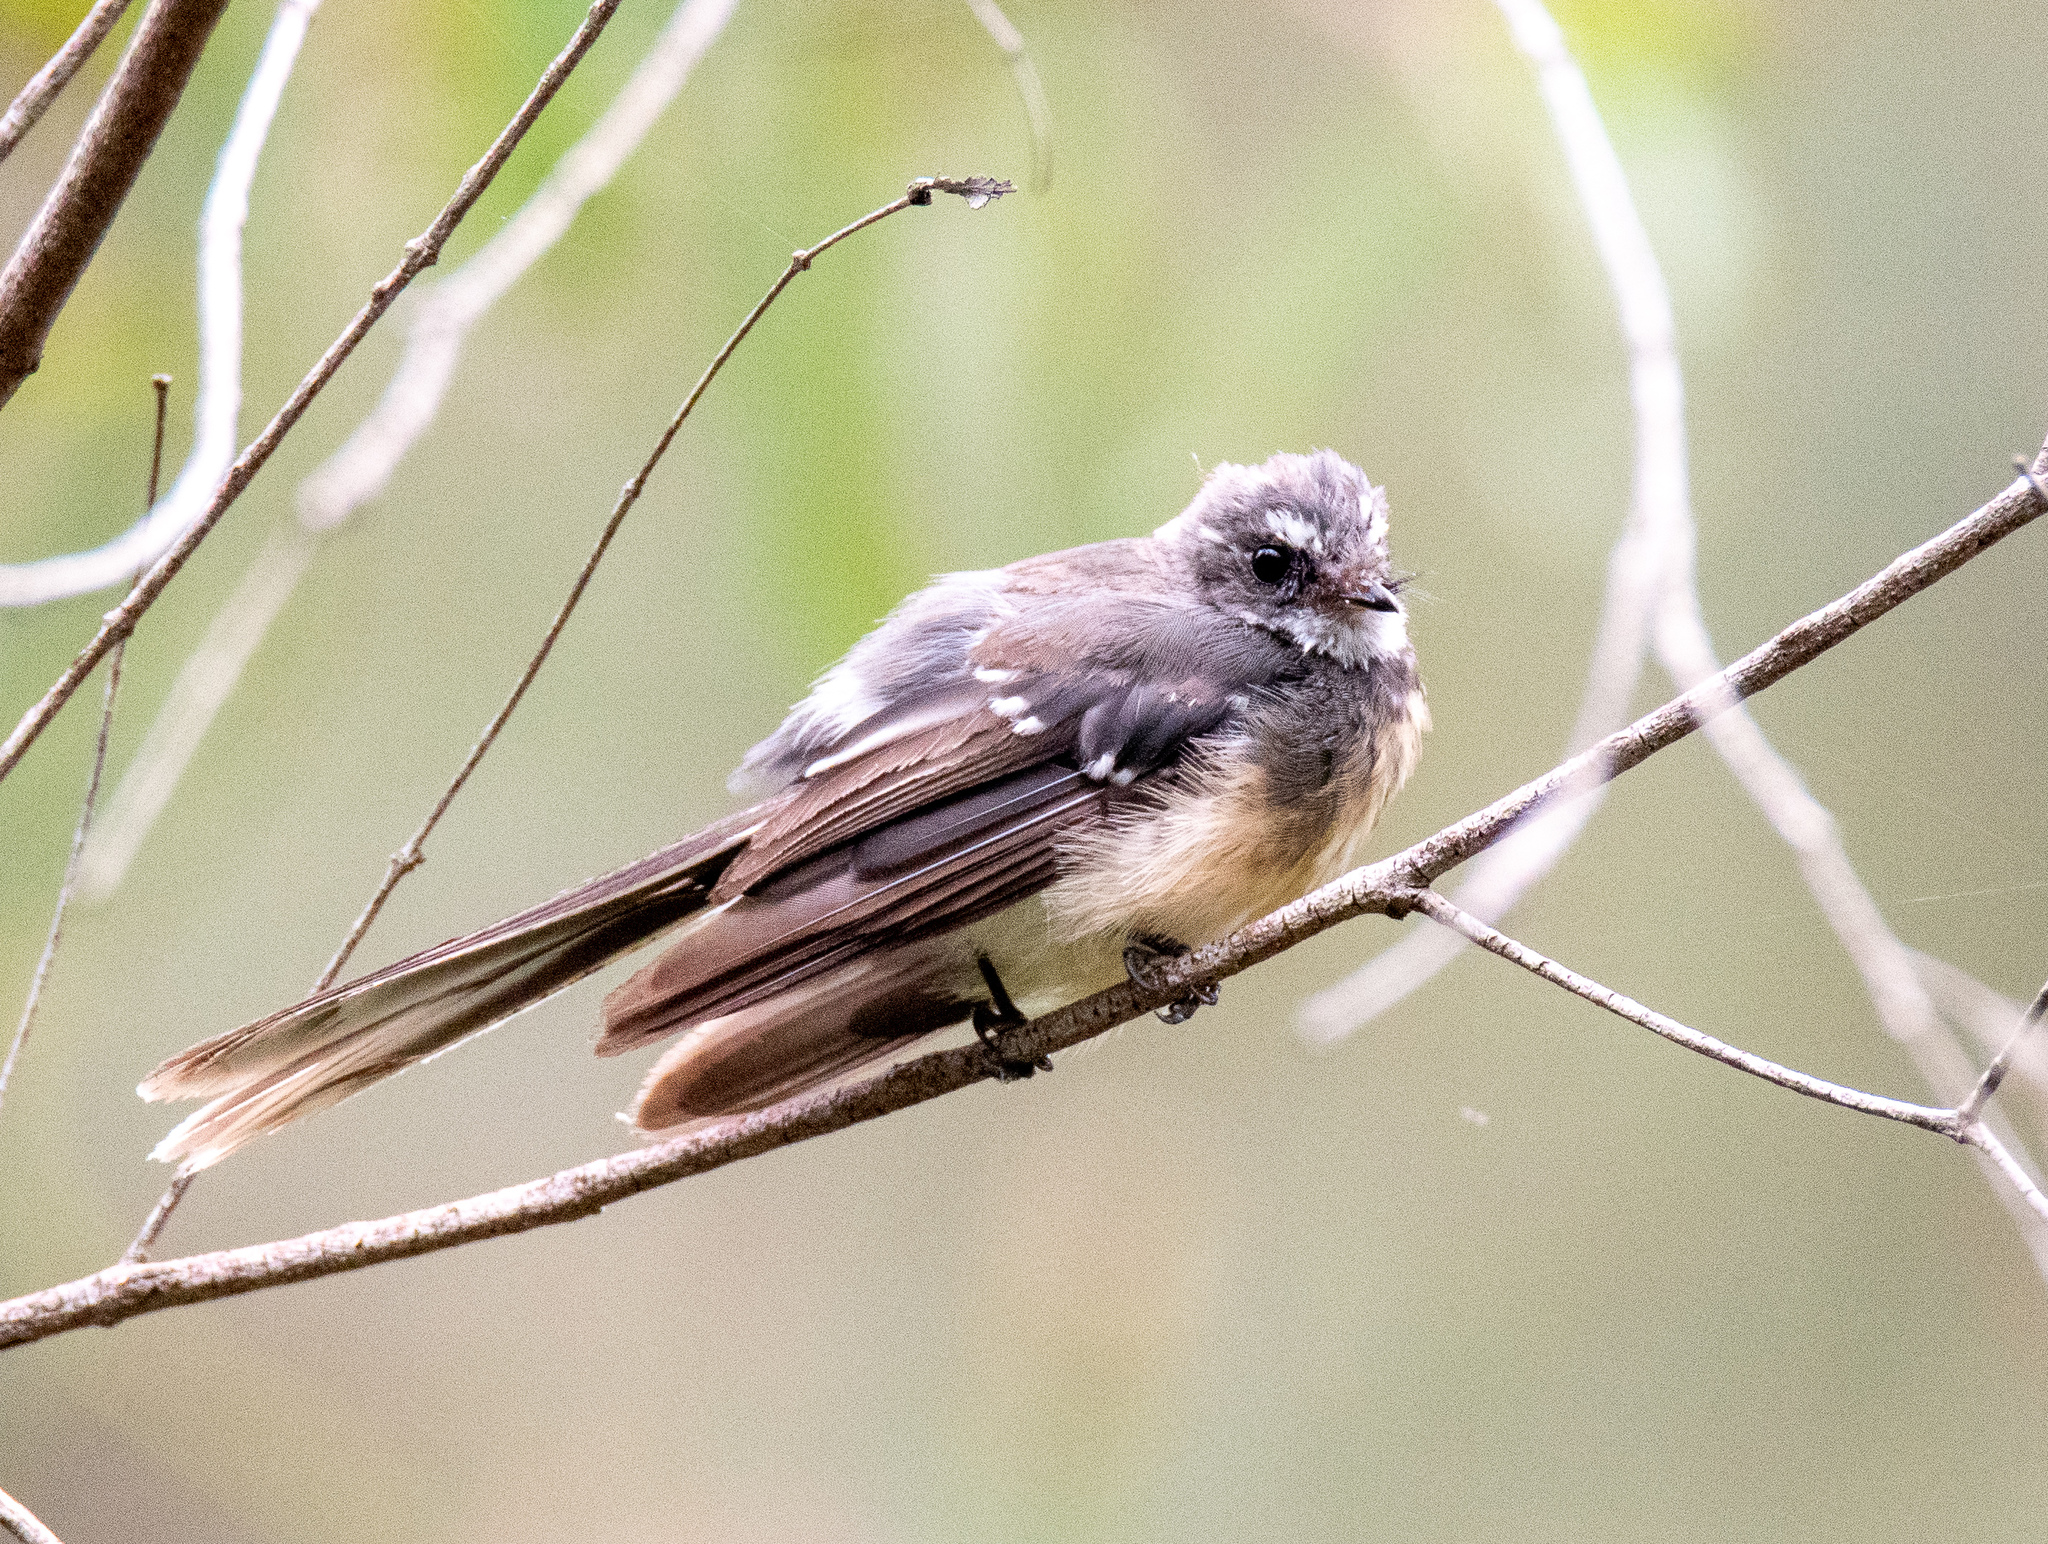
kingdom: Animalia
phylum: Chordata
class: Aves
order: Passeriformes
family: Rhipiduridae
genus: Rhipidura
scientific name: Rhipidura albiscapa
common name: Grey fantail
